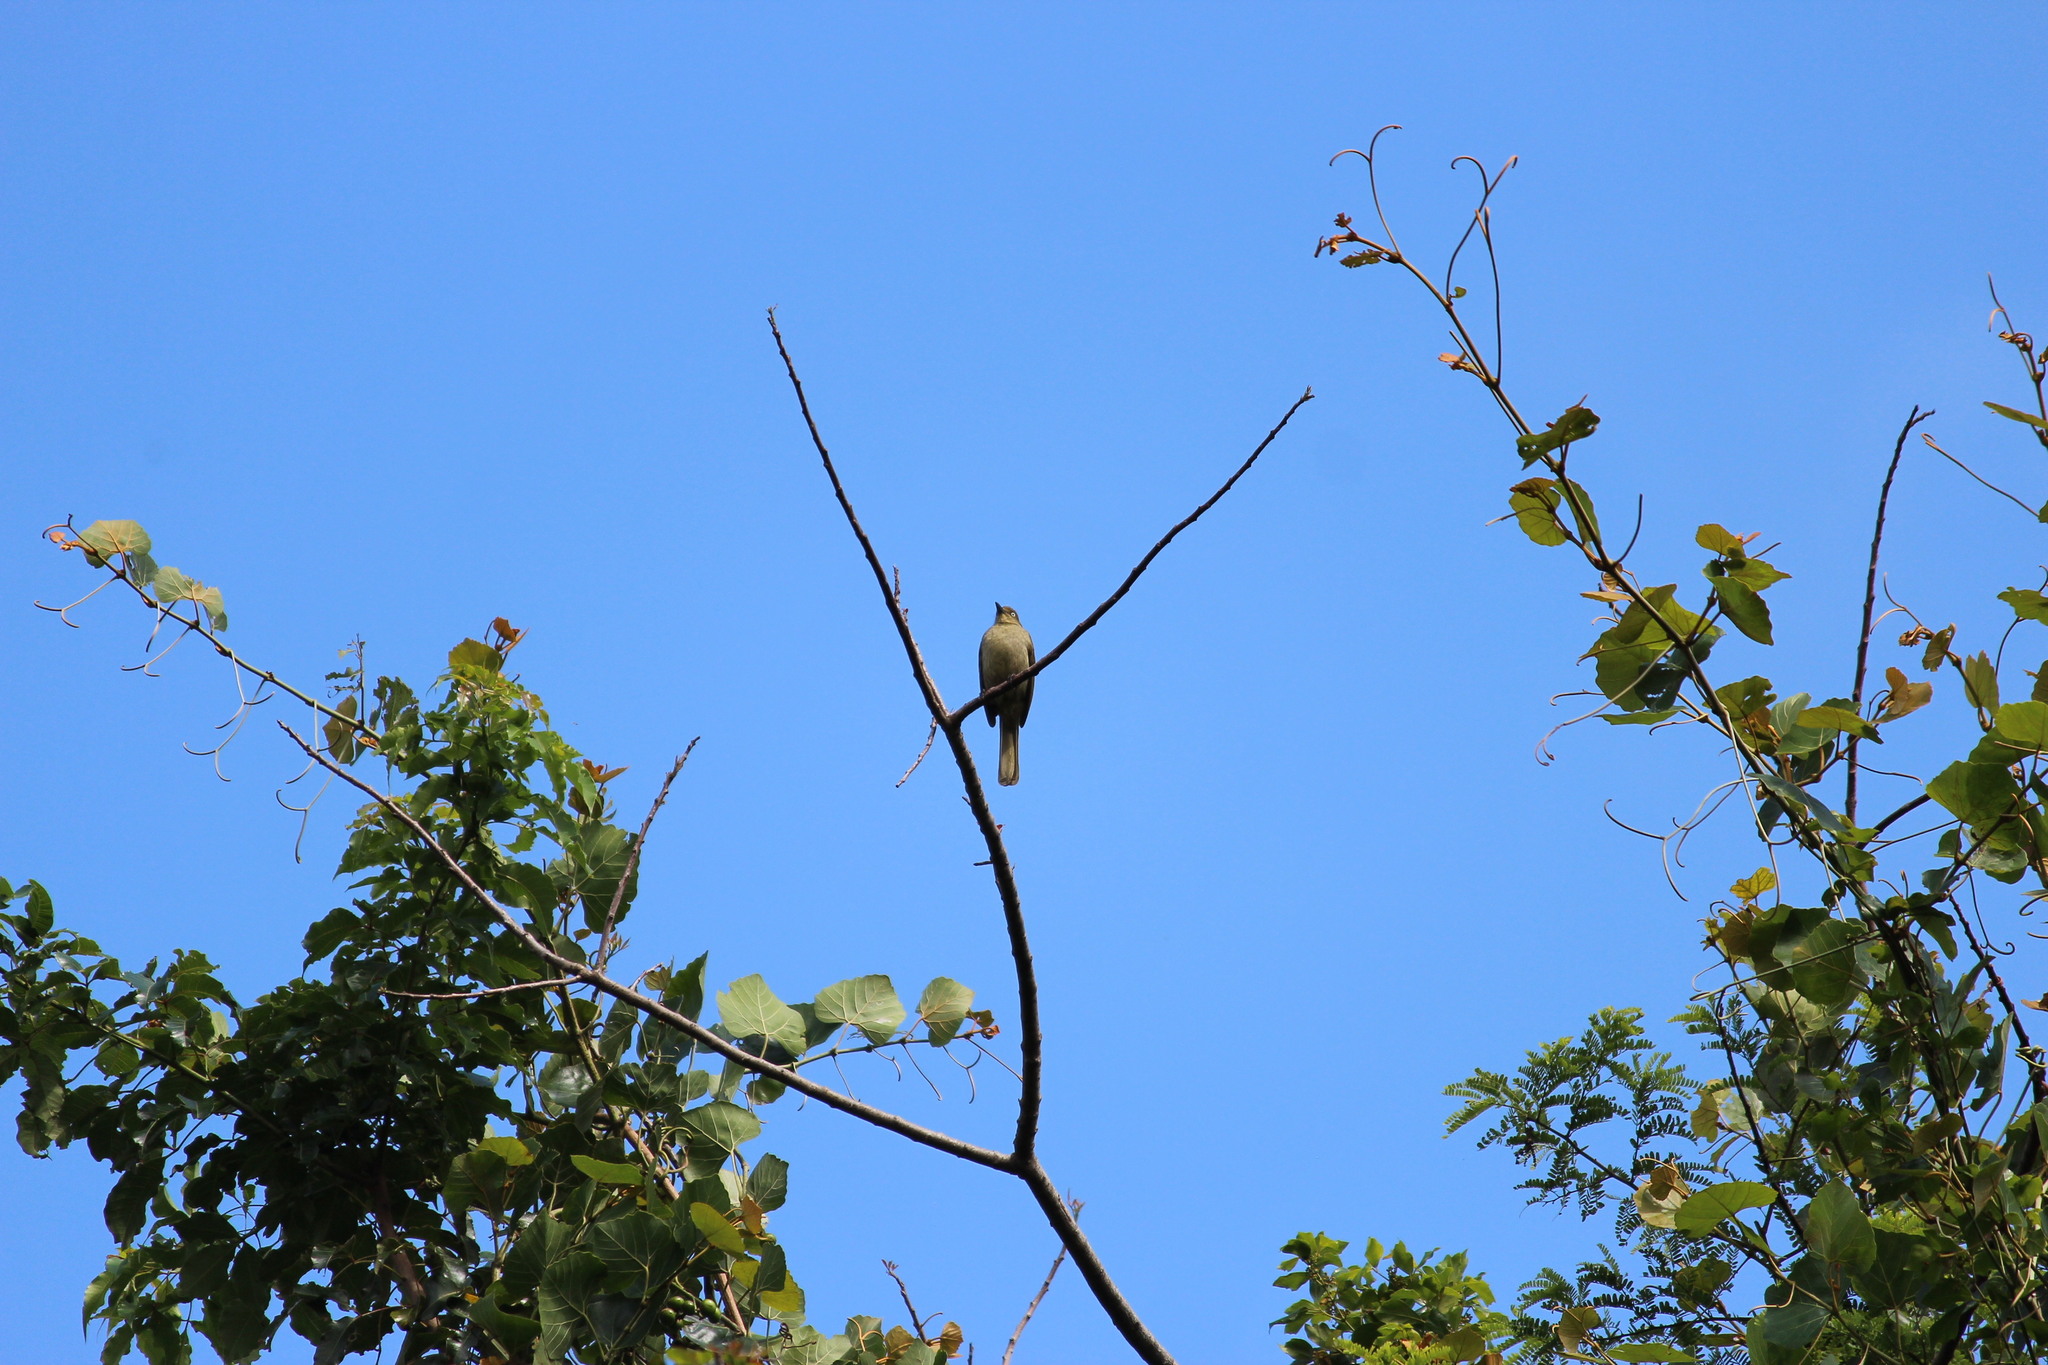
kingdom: Animalia
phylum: Chordata
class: Aves
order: Passeriformes
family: Pycnonotidae
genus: Andropadus
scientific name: Andropadus importunus
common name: Sombre greenbul
